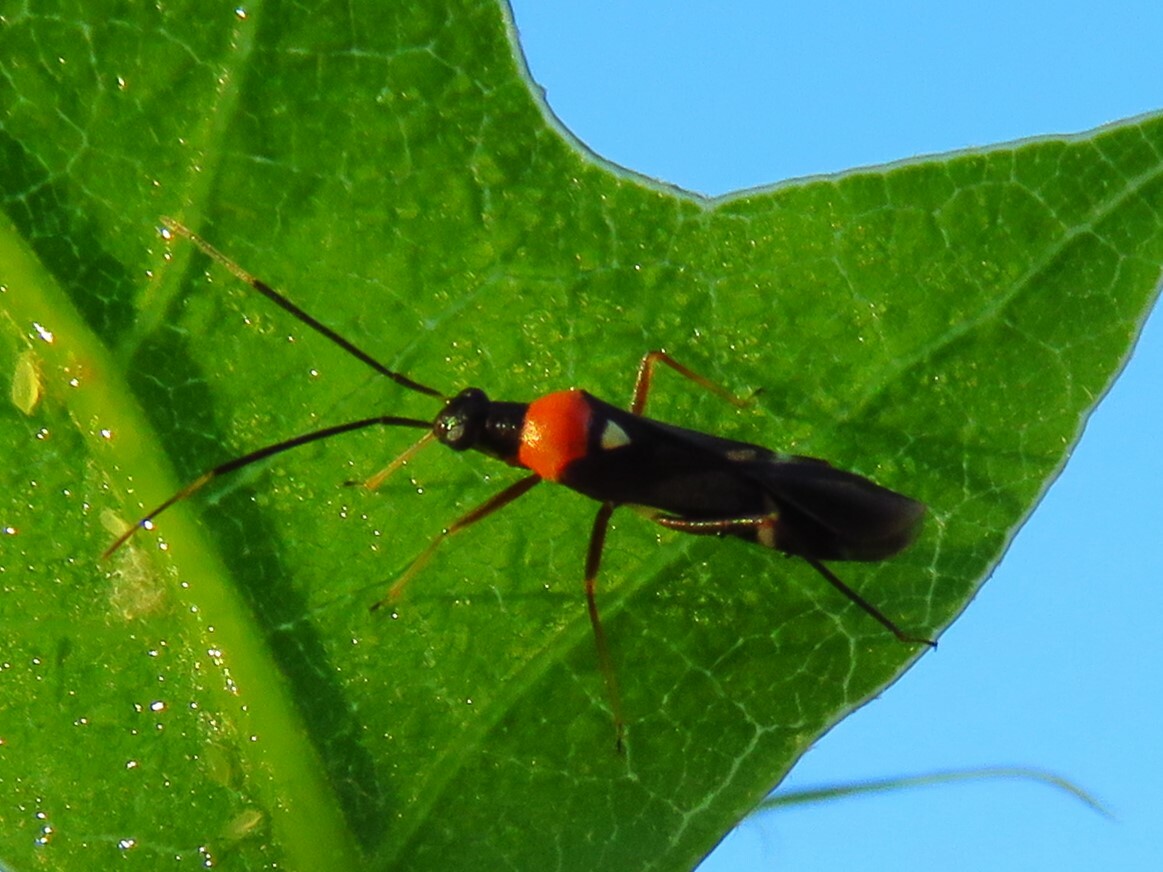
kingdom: Animalia
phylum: Arthropoda
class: Insecta
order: Hemiptera
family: Miridae
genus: Pseudoxenetus
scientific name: Pseudoxenetus regalis
